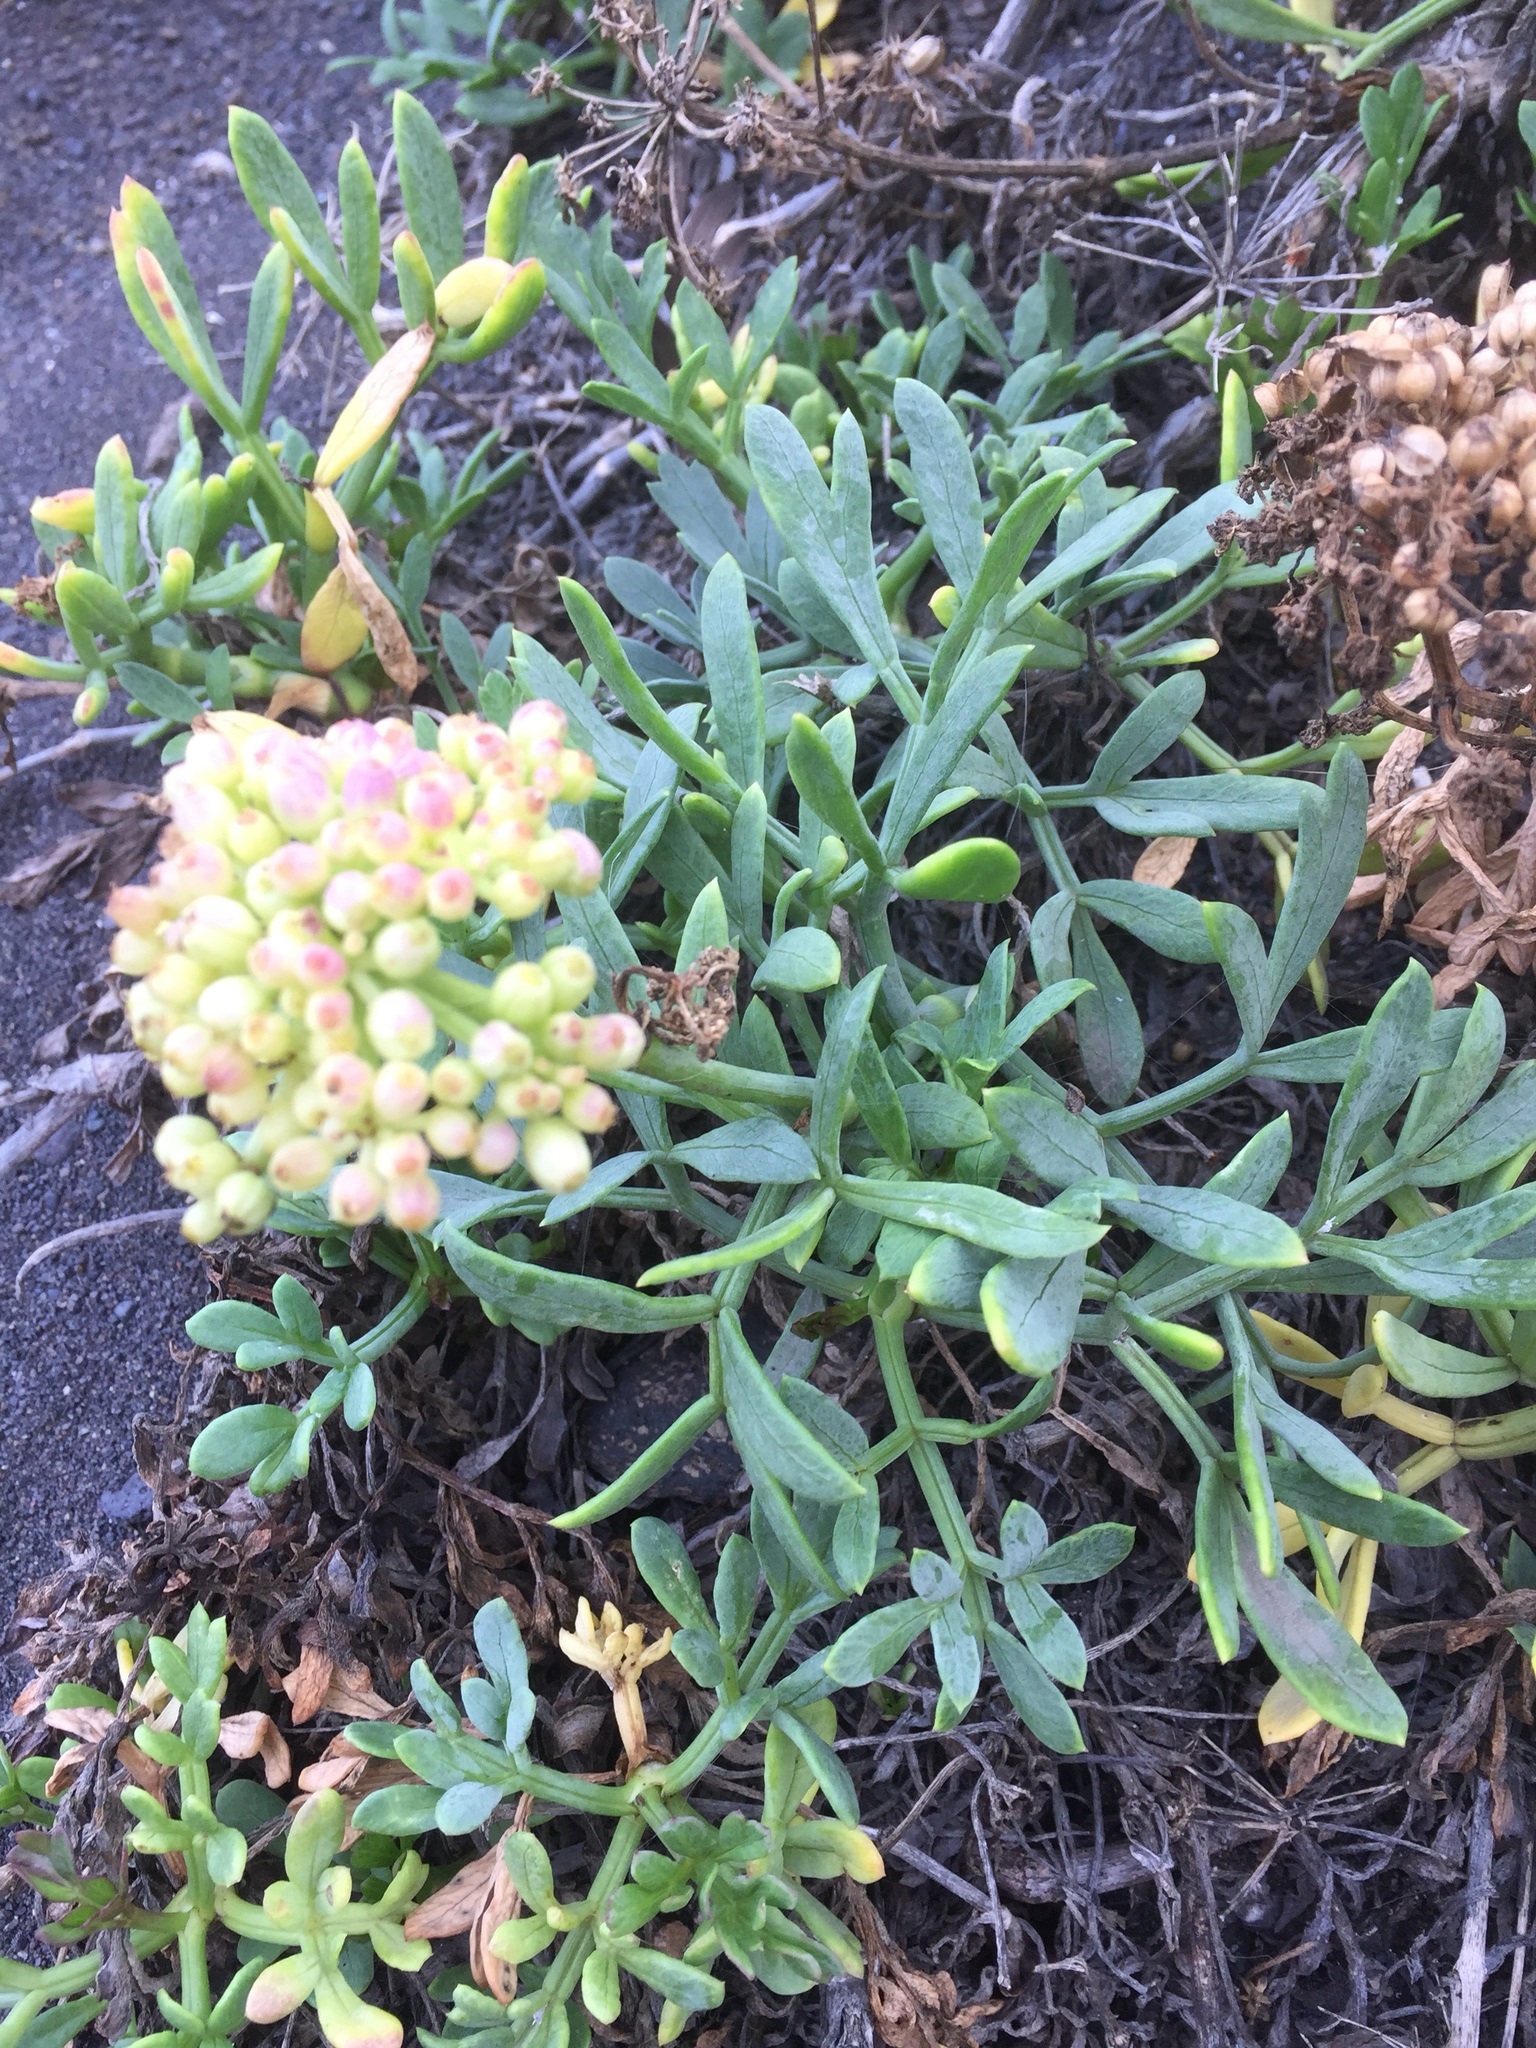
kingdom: Plantae
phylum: Tracheophyta
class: Magnoliopsida
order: Apiales
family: Apiaceae
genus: Crithmum
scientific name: Crithmum maritimum
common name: Rock samphire
